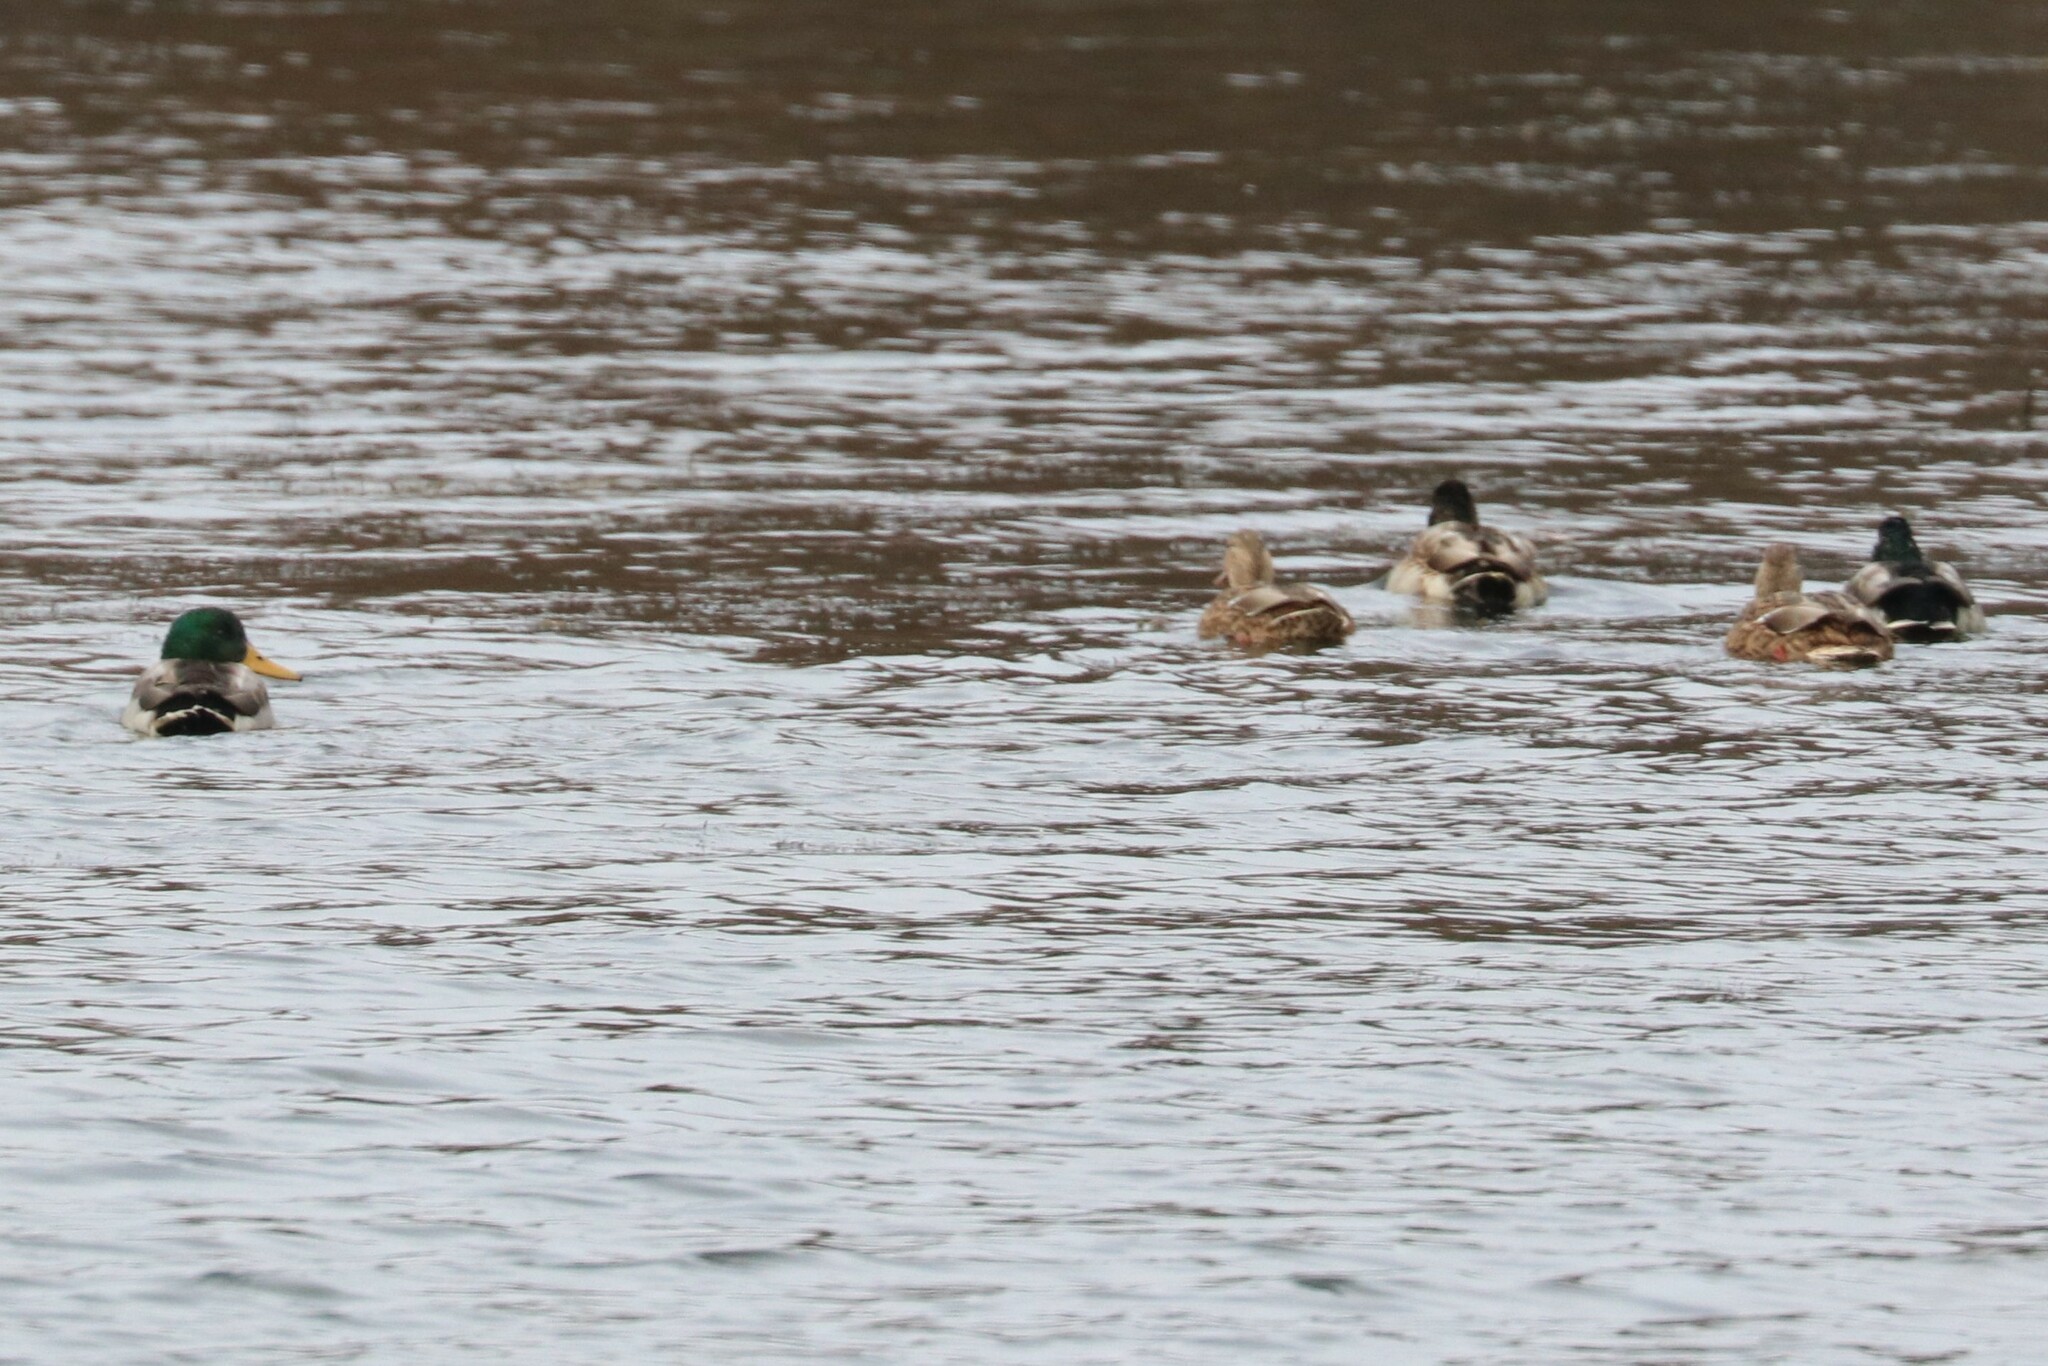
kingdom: Animalia
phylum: Chordata
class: Aves
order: Anseriformes
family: Anatidae
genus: Anas
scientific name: Anas platyrhynchos
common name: Mallard
